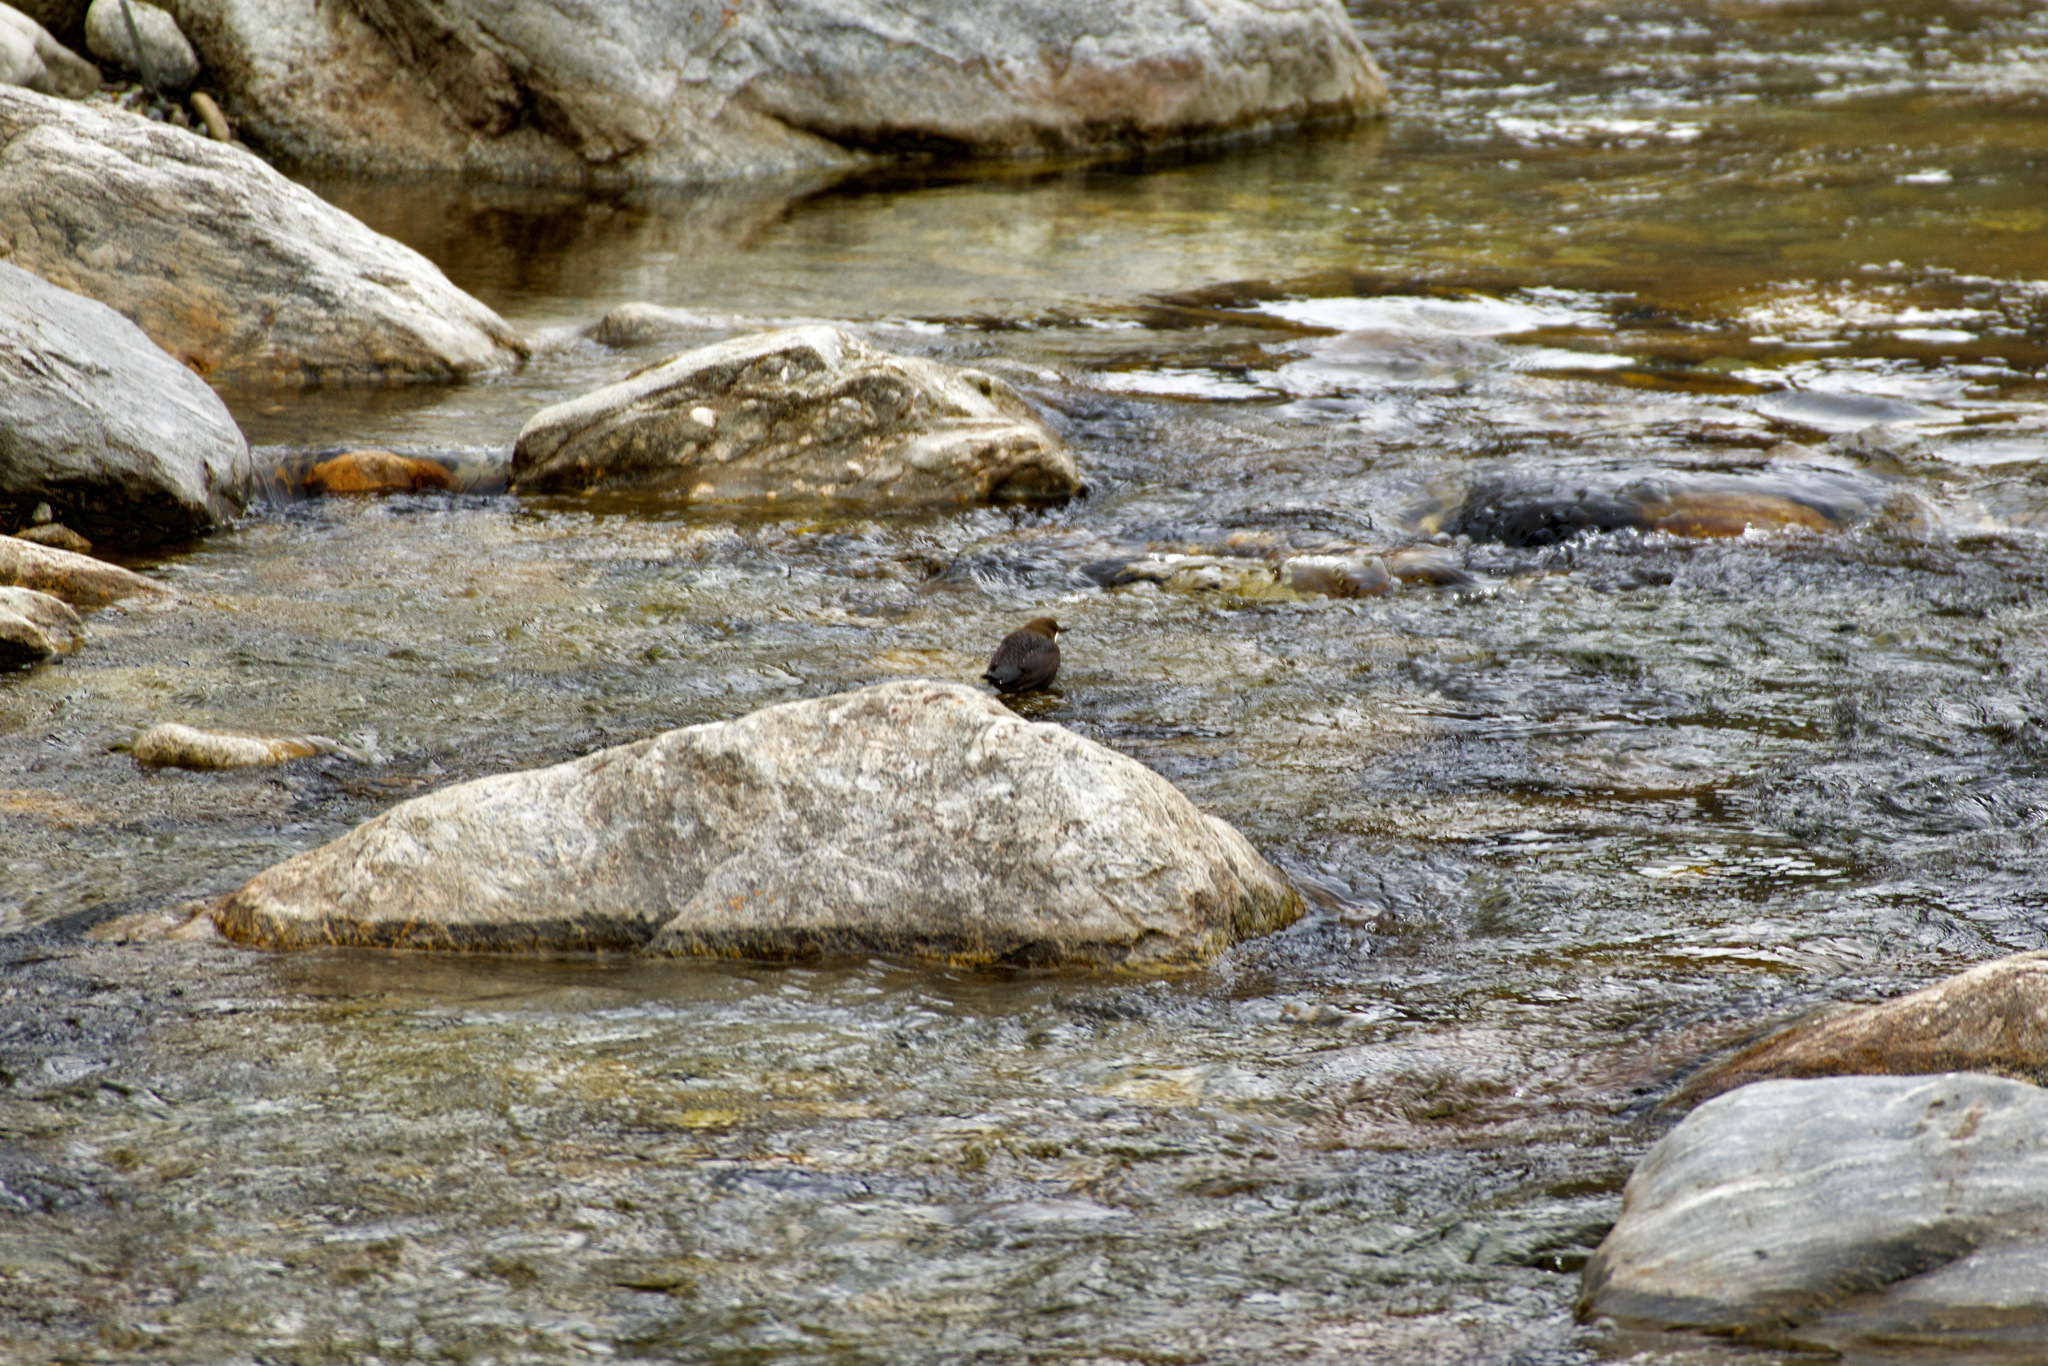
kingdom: Animalia
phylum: Chordata
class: Aves
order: Passeriformes
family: Cinclidae
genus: Cinclus
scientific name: Cinclus cinclus
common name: White-throated dipper
